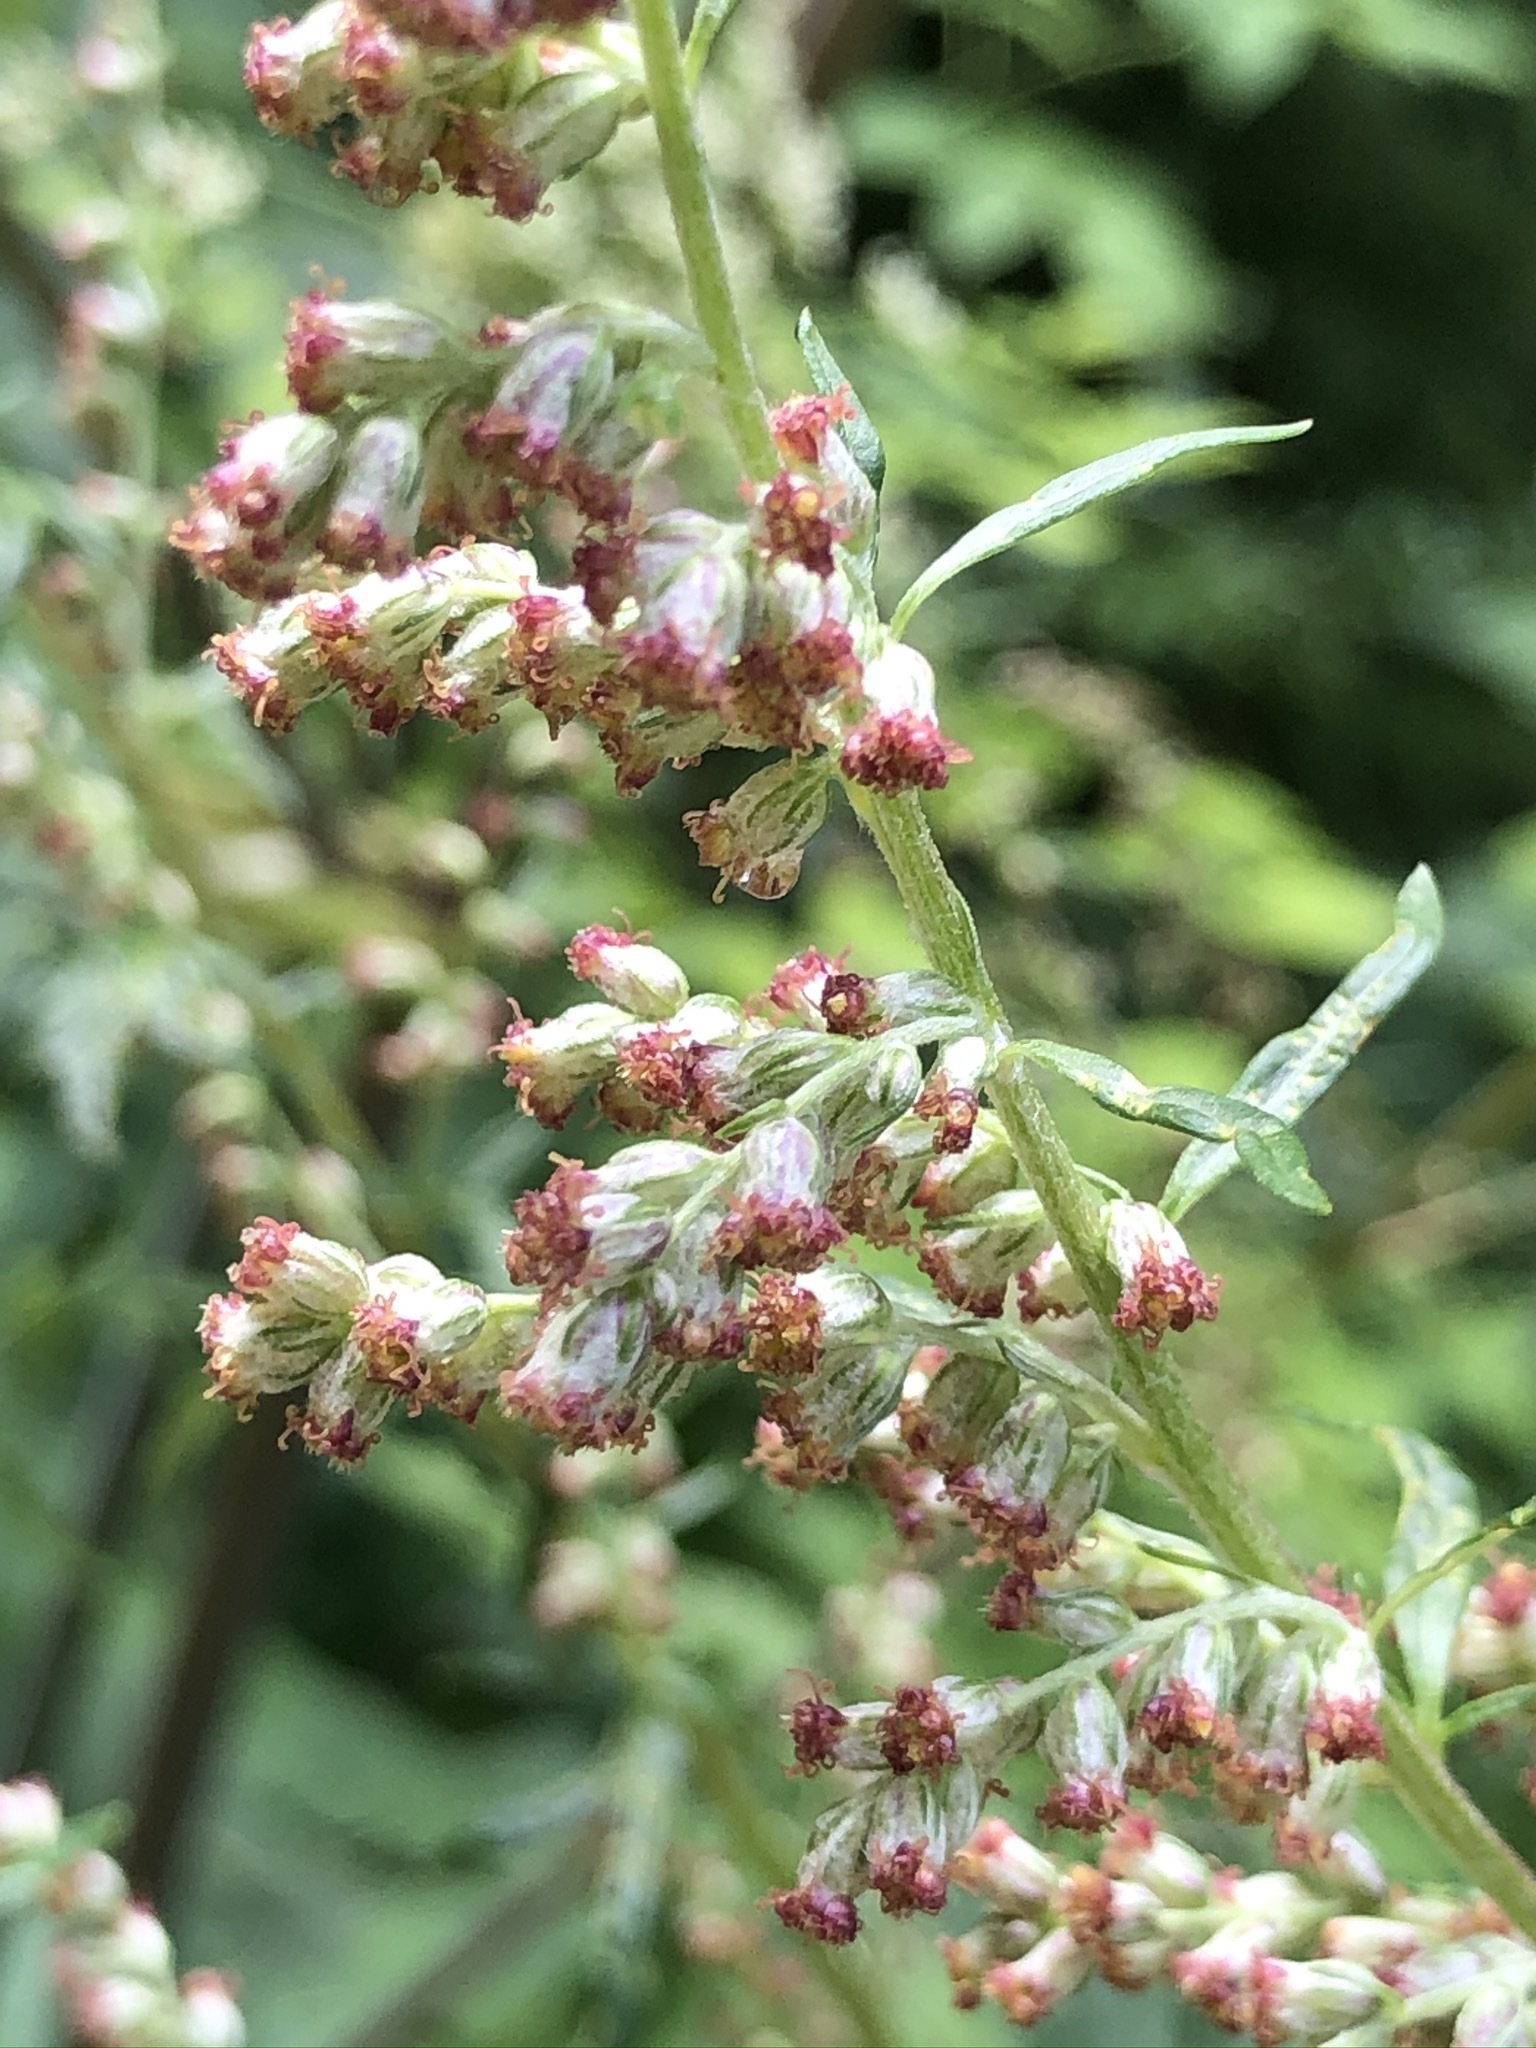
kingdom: Plantae
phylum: Tracheophyta
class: Magnoliopsida
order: Asterales
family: Asteraceae
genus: Artemisia
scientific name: Artemisia vulgaris
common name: Mugwort
